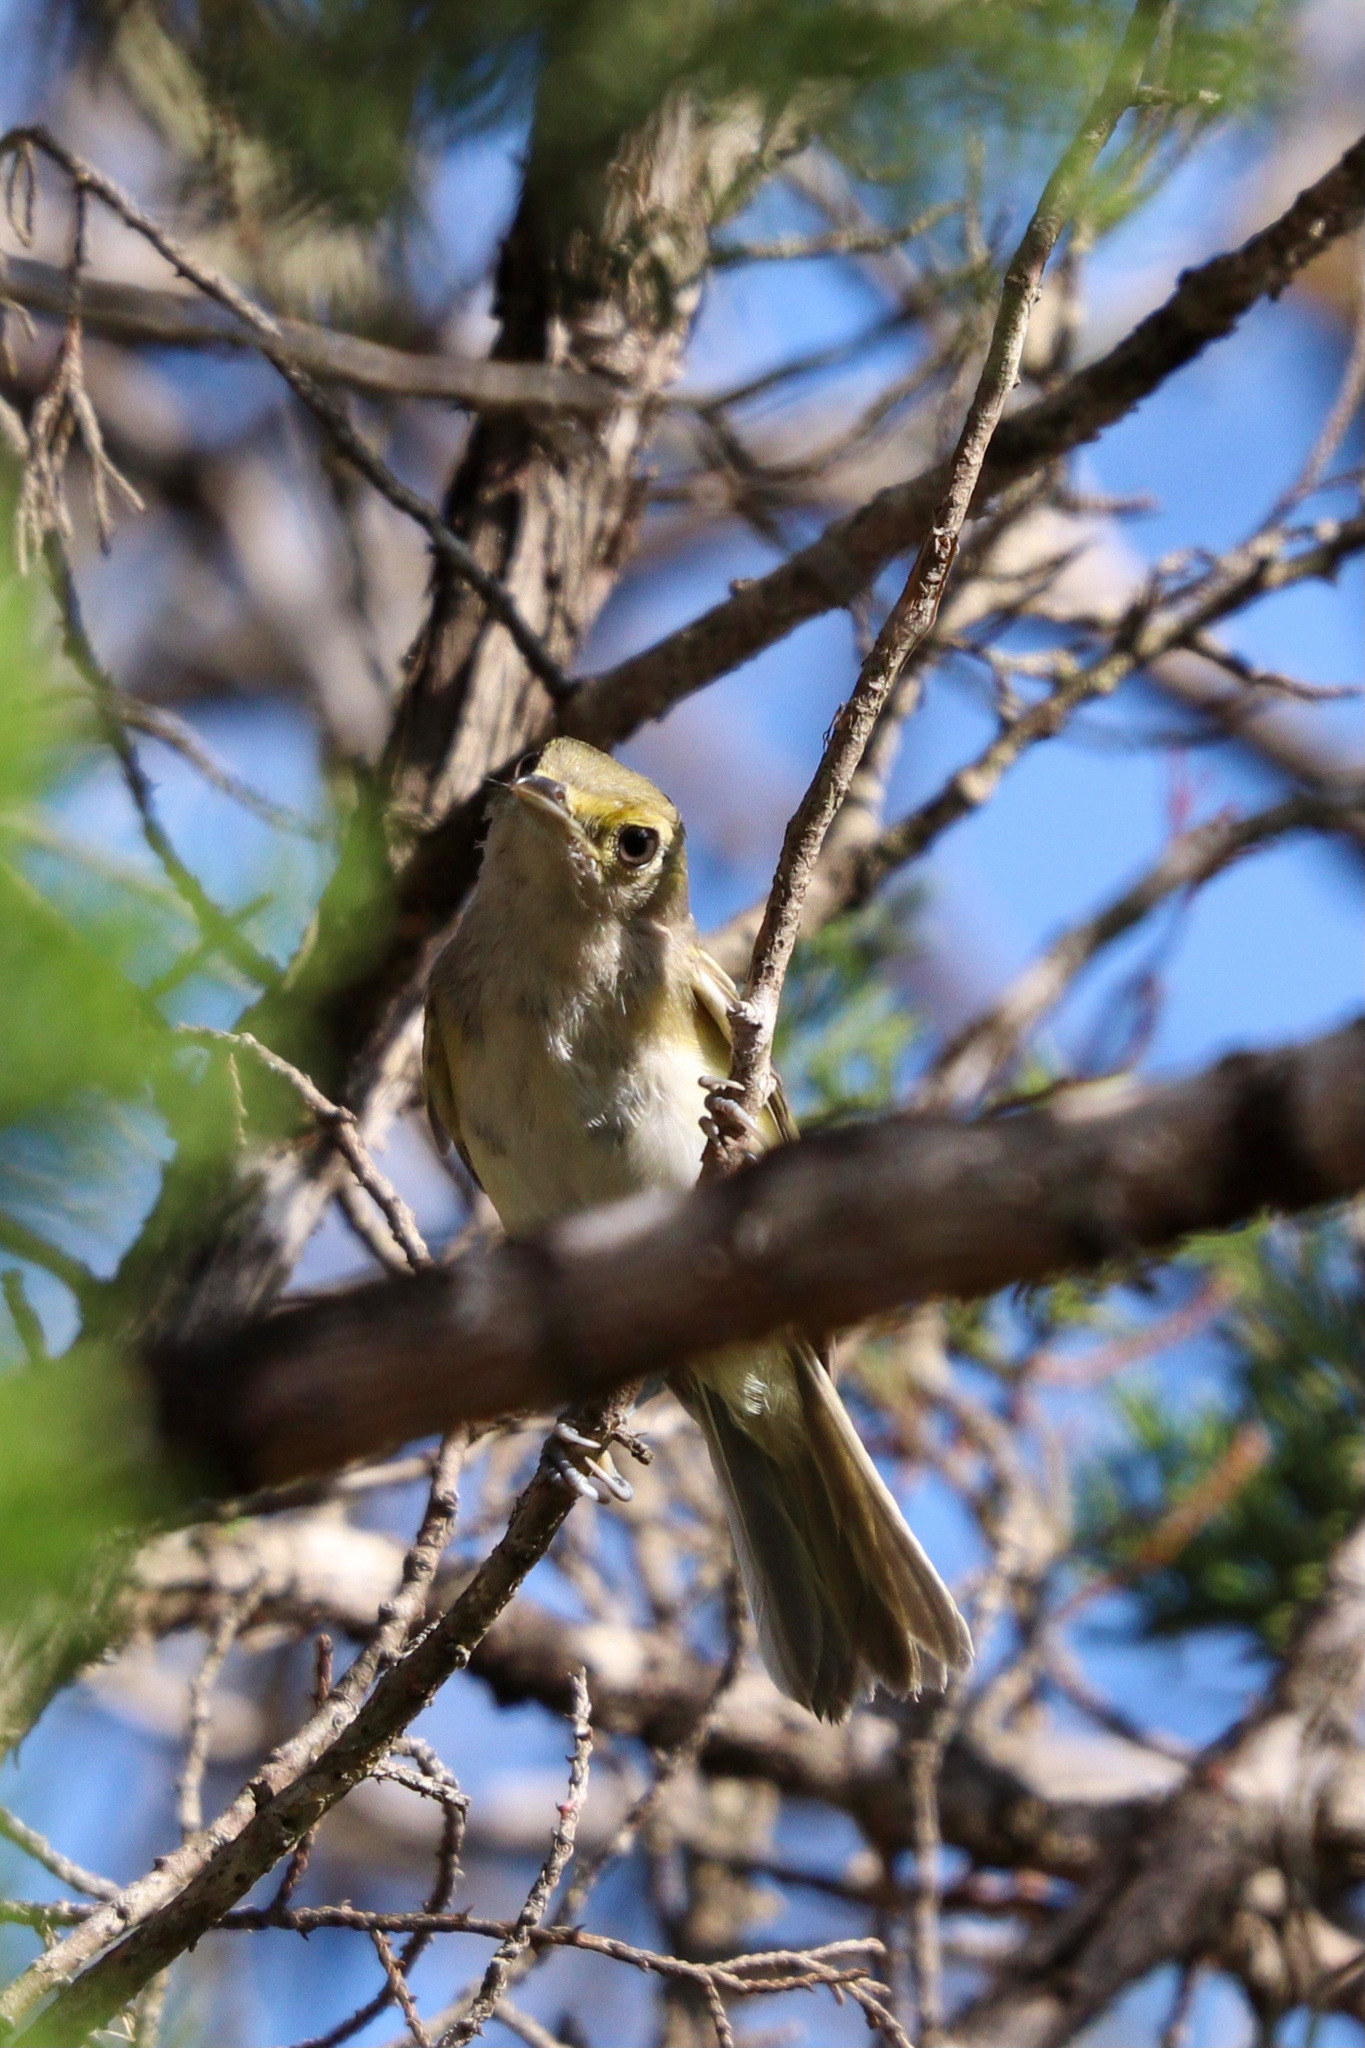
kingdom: Animalia
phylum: Chordata
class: Aves
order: Passeriformes
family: Vireonidae
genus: Vireo
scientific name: Vireo griseus
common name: White-eyed vireo
